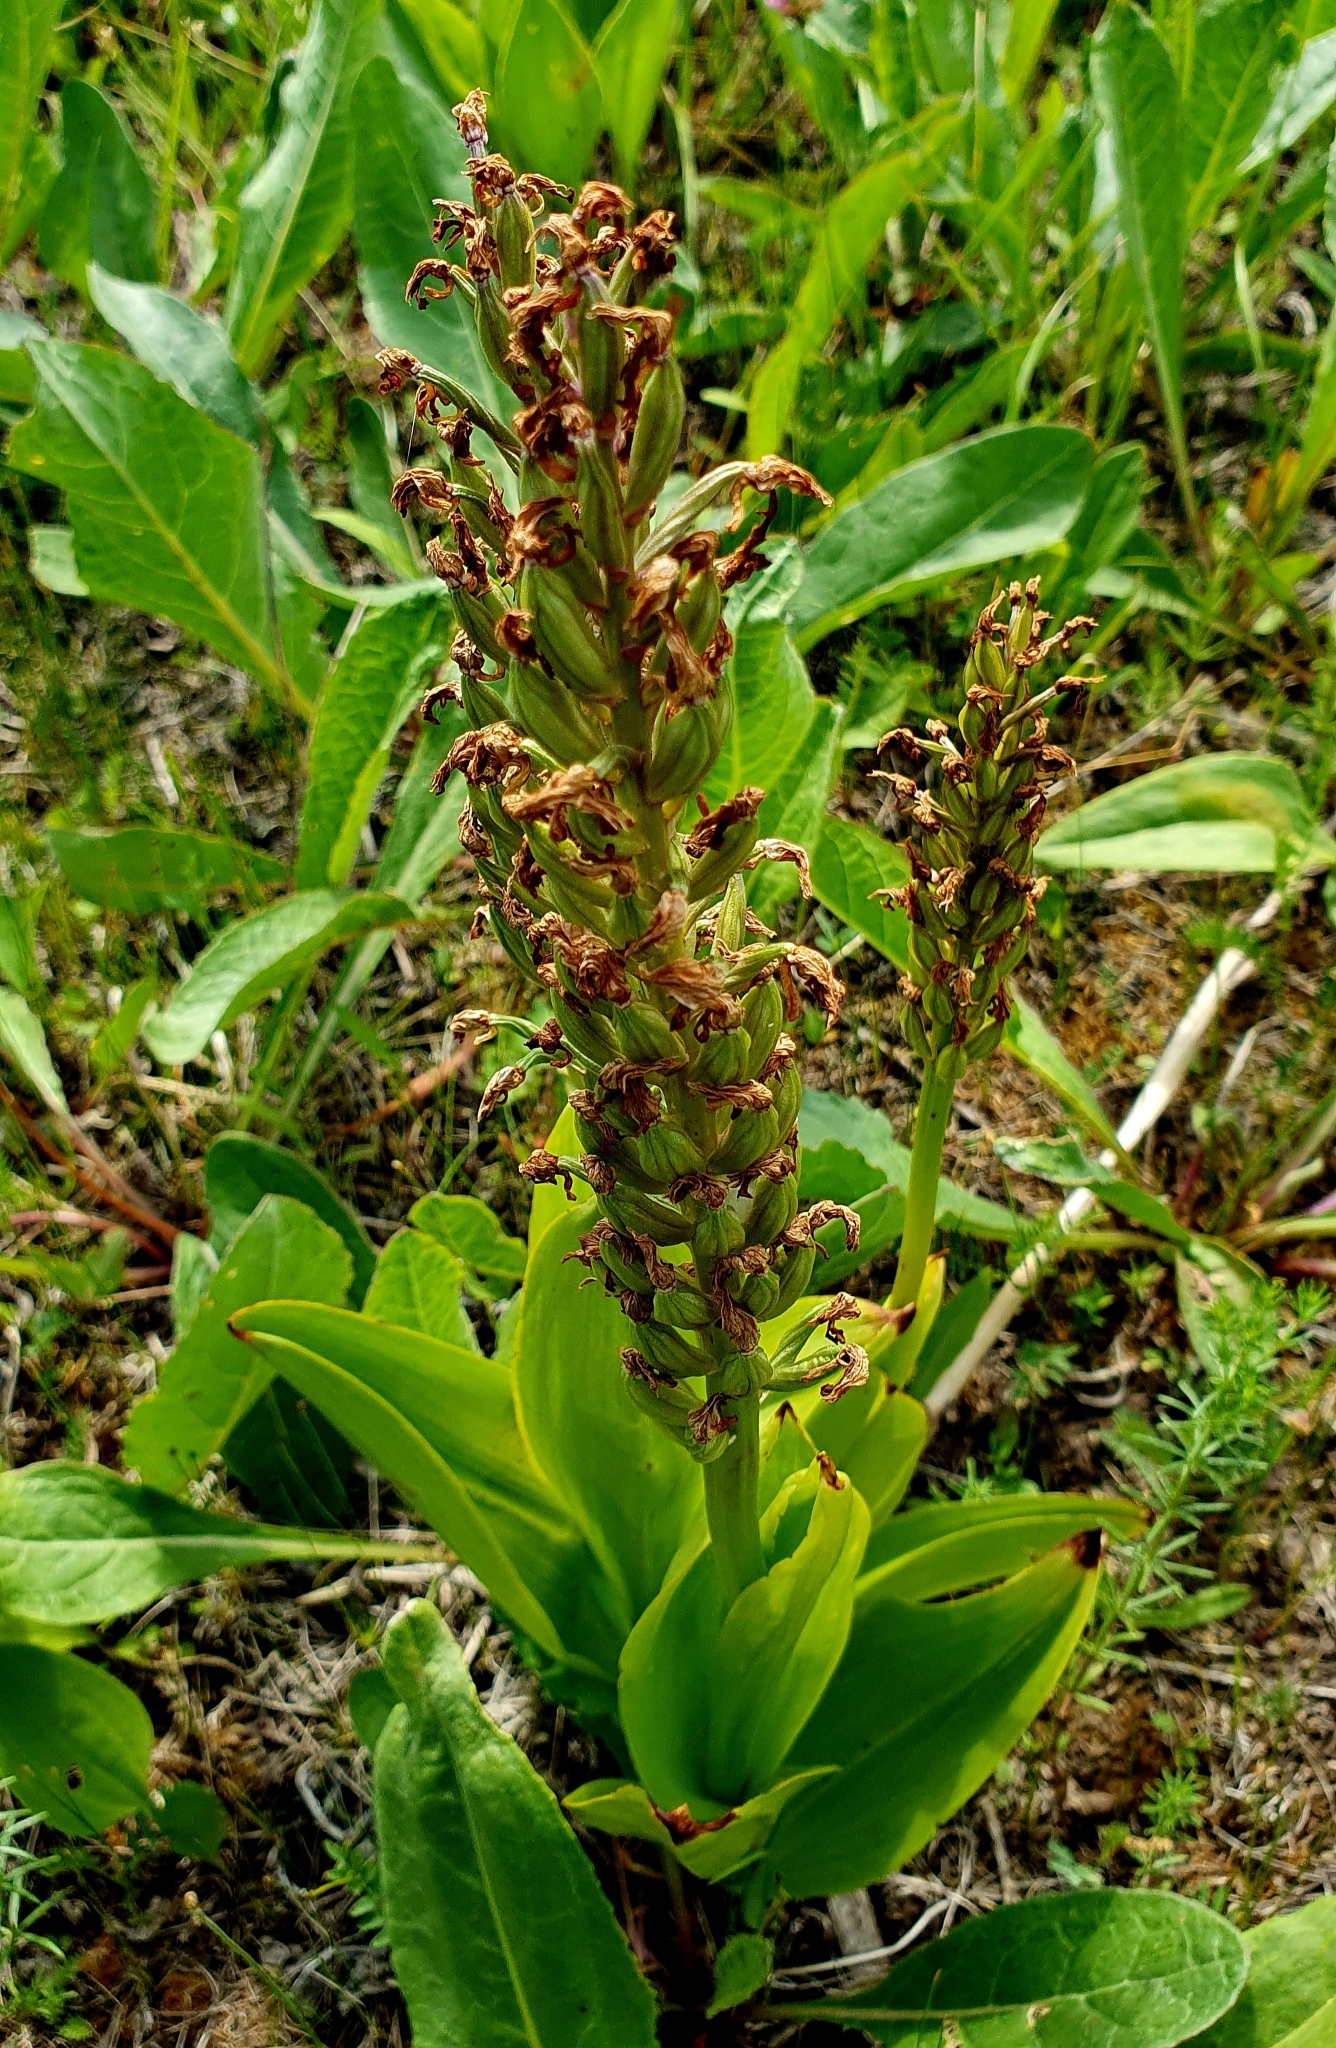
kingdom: Plantae
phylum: Tracheophyta
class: Liliopsida
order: Asparagales
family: Orchidaceae
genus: Orchis
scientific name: Orchis militaris
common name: Military orchid
